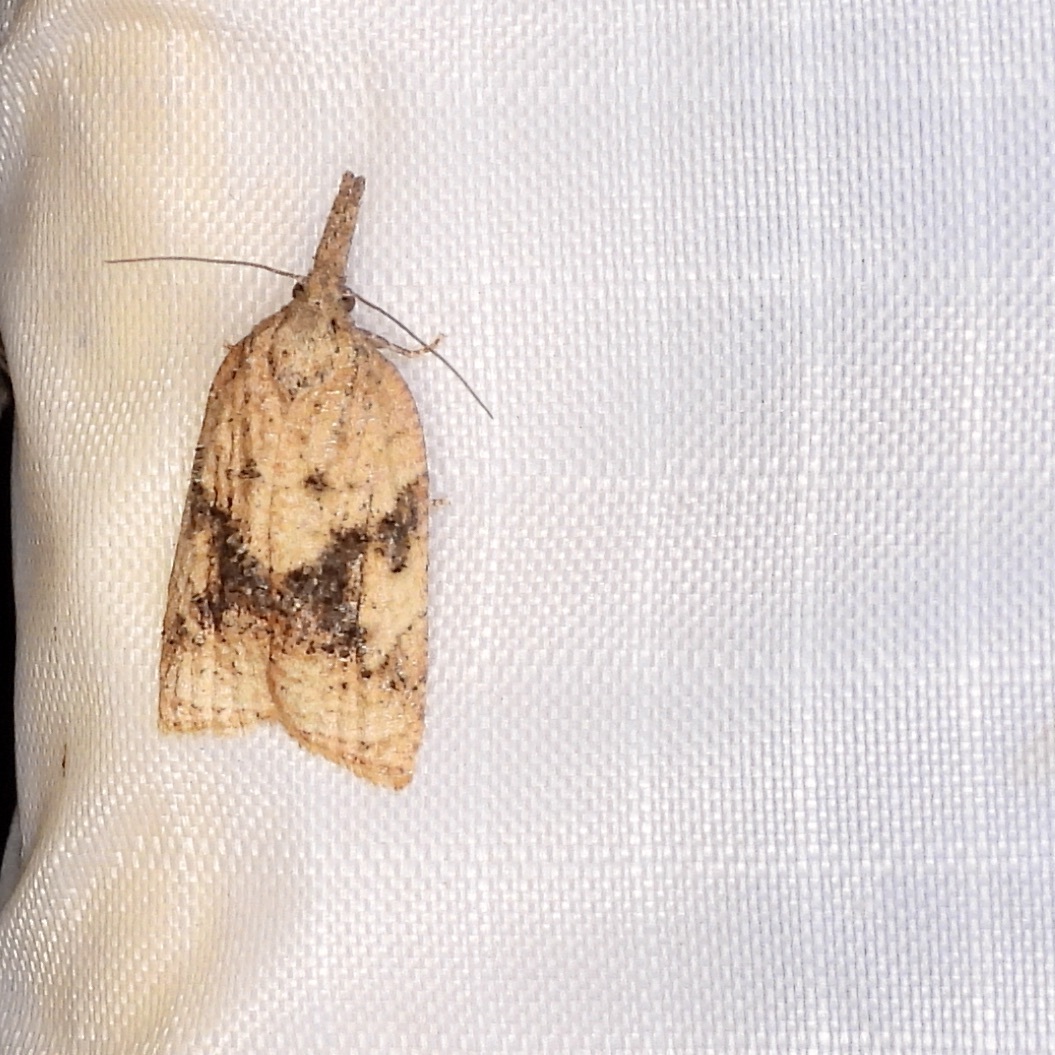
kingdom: Animalia
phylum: Arthropoda
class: Insecta
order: Lepidoptera
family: Tortricidae
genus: Platynota
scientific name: Platynota rostrana
